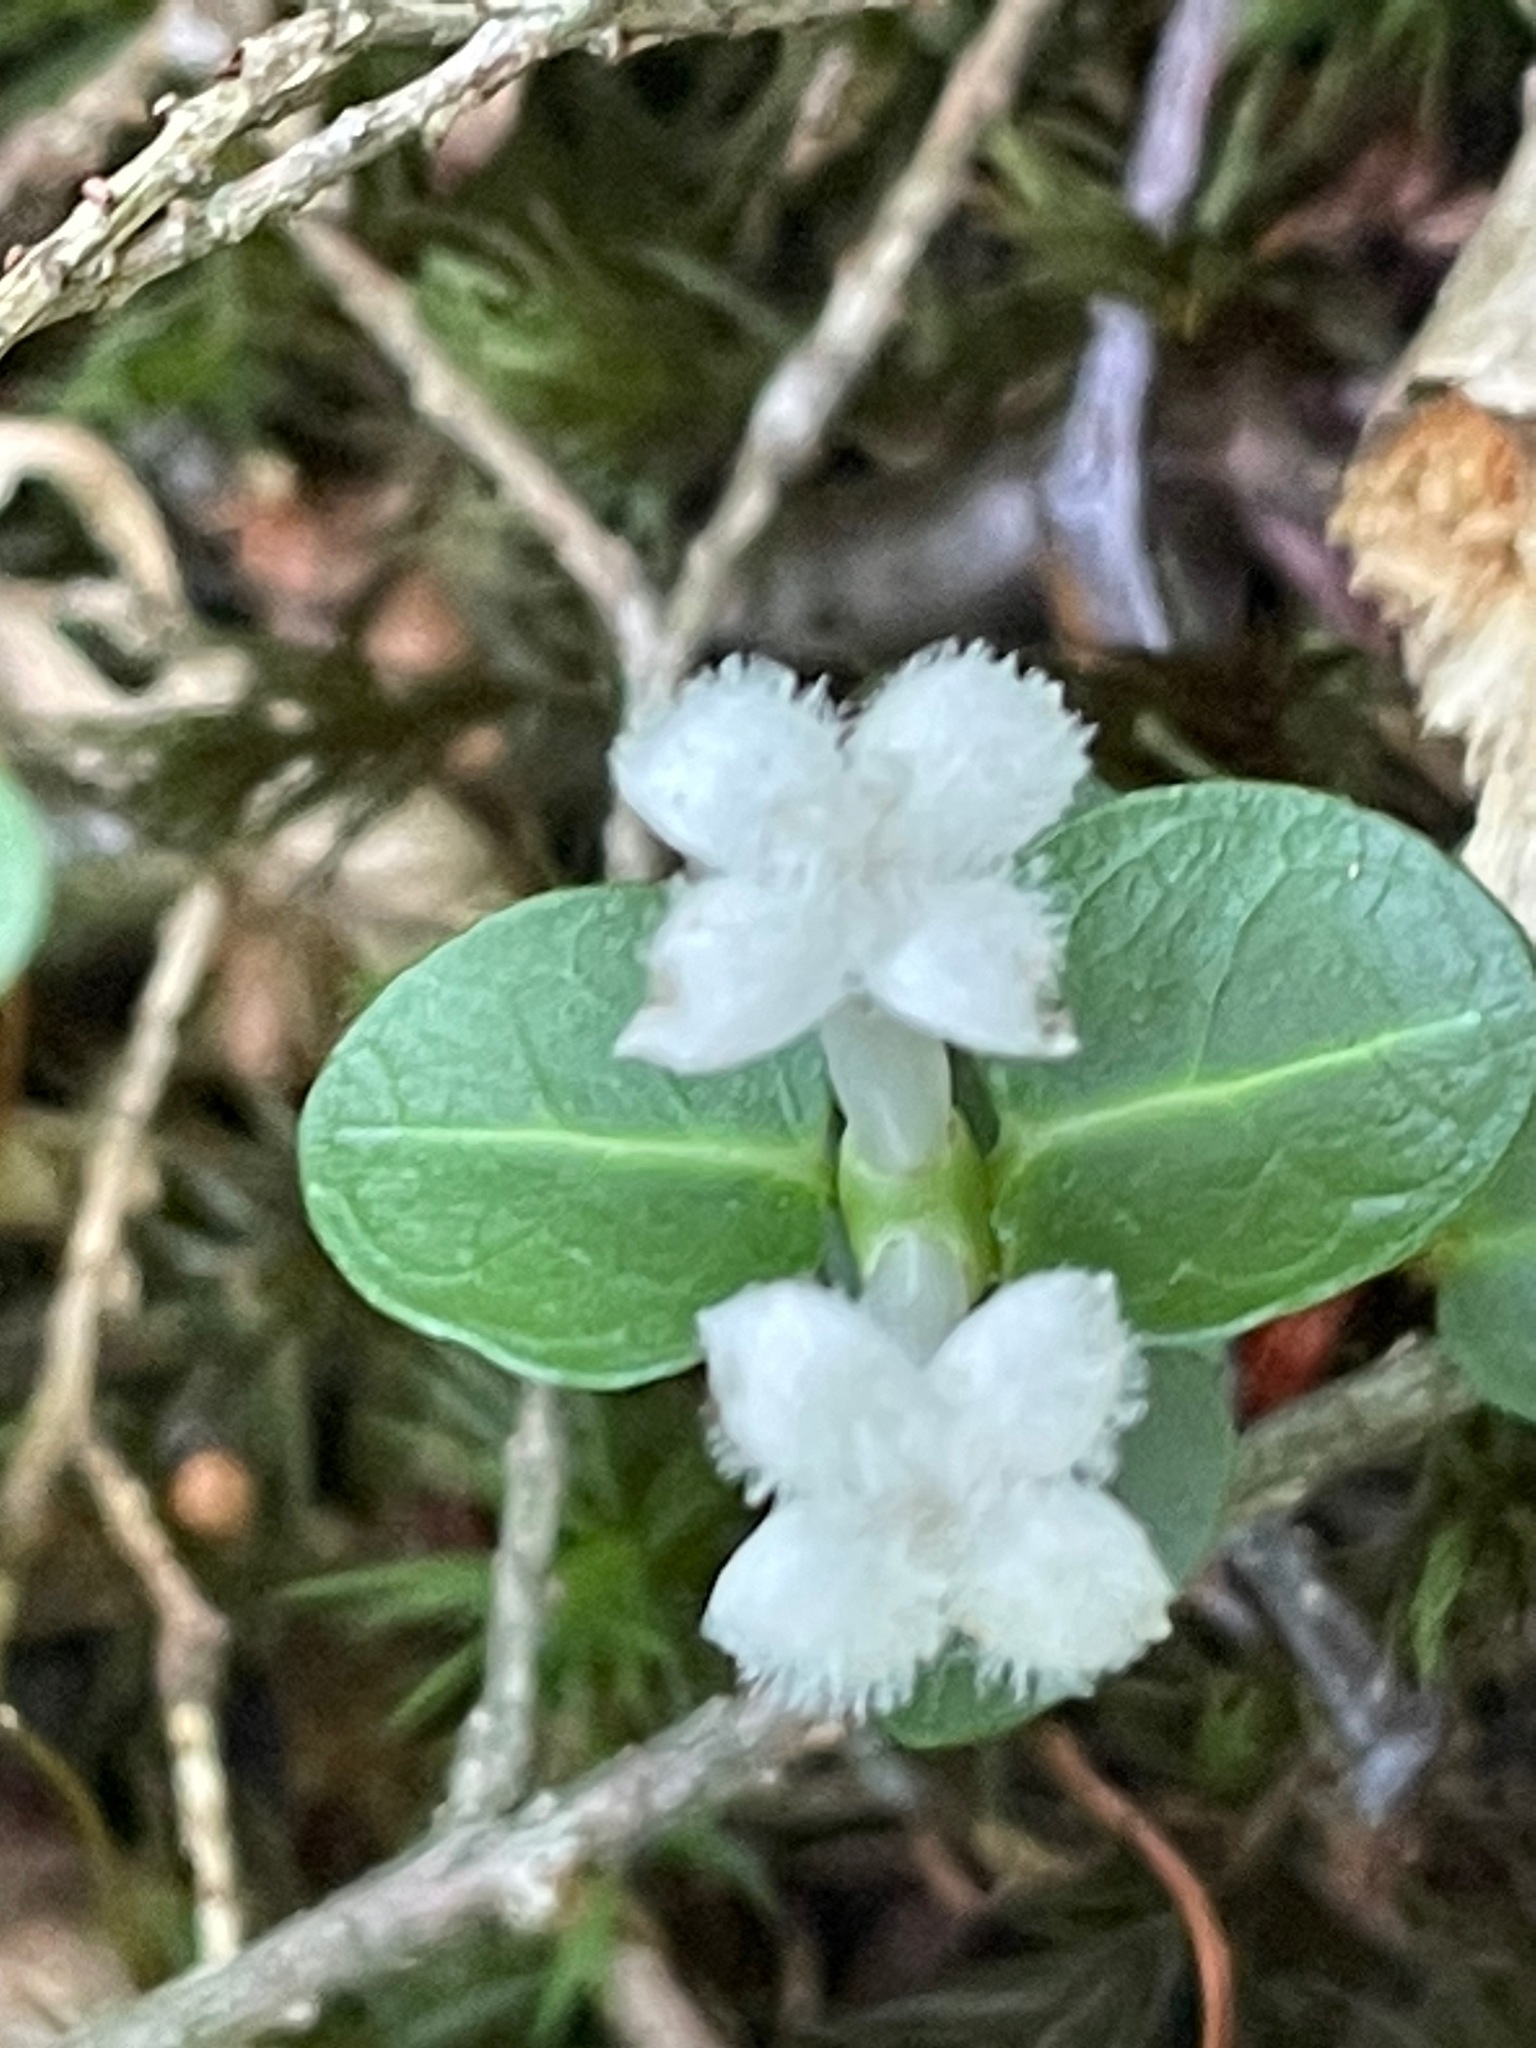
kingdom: Plantae
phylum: Tracheophyta
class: Magnoliopsida
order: Gentianales
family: Rubiaceae
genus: Mitchella
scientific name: Mitchella repens
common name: Partridge-berry
